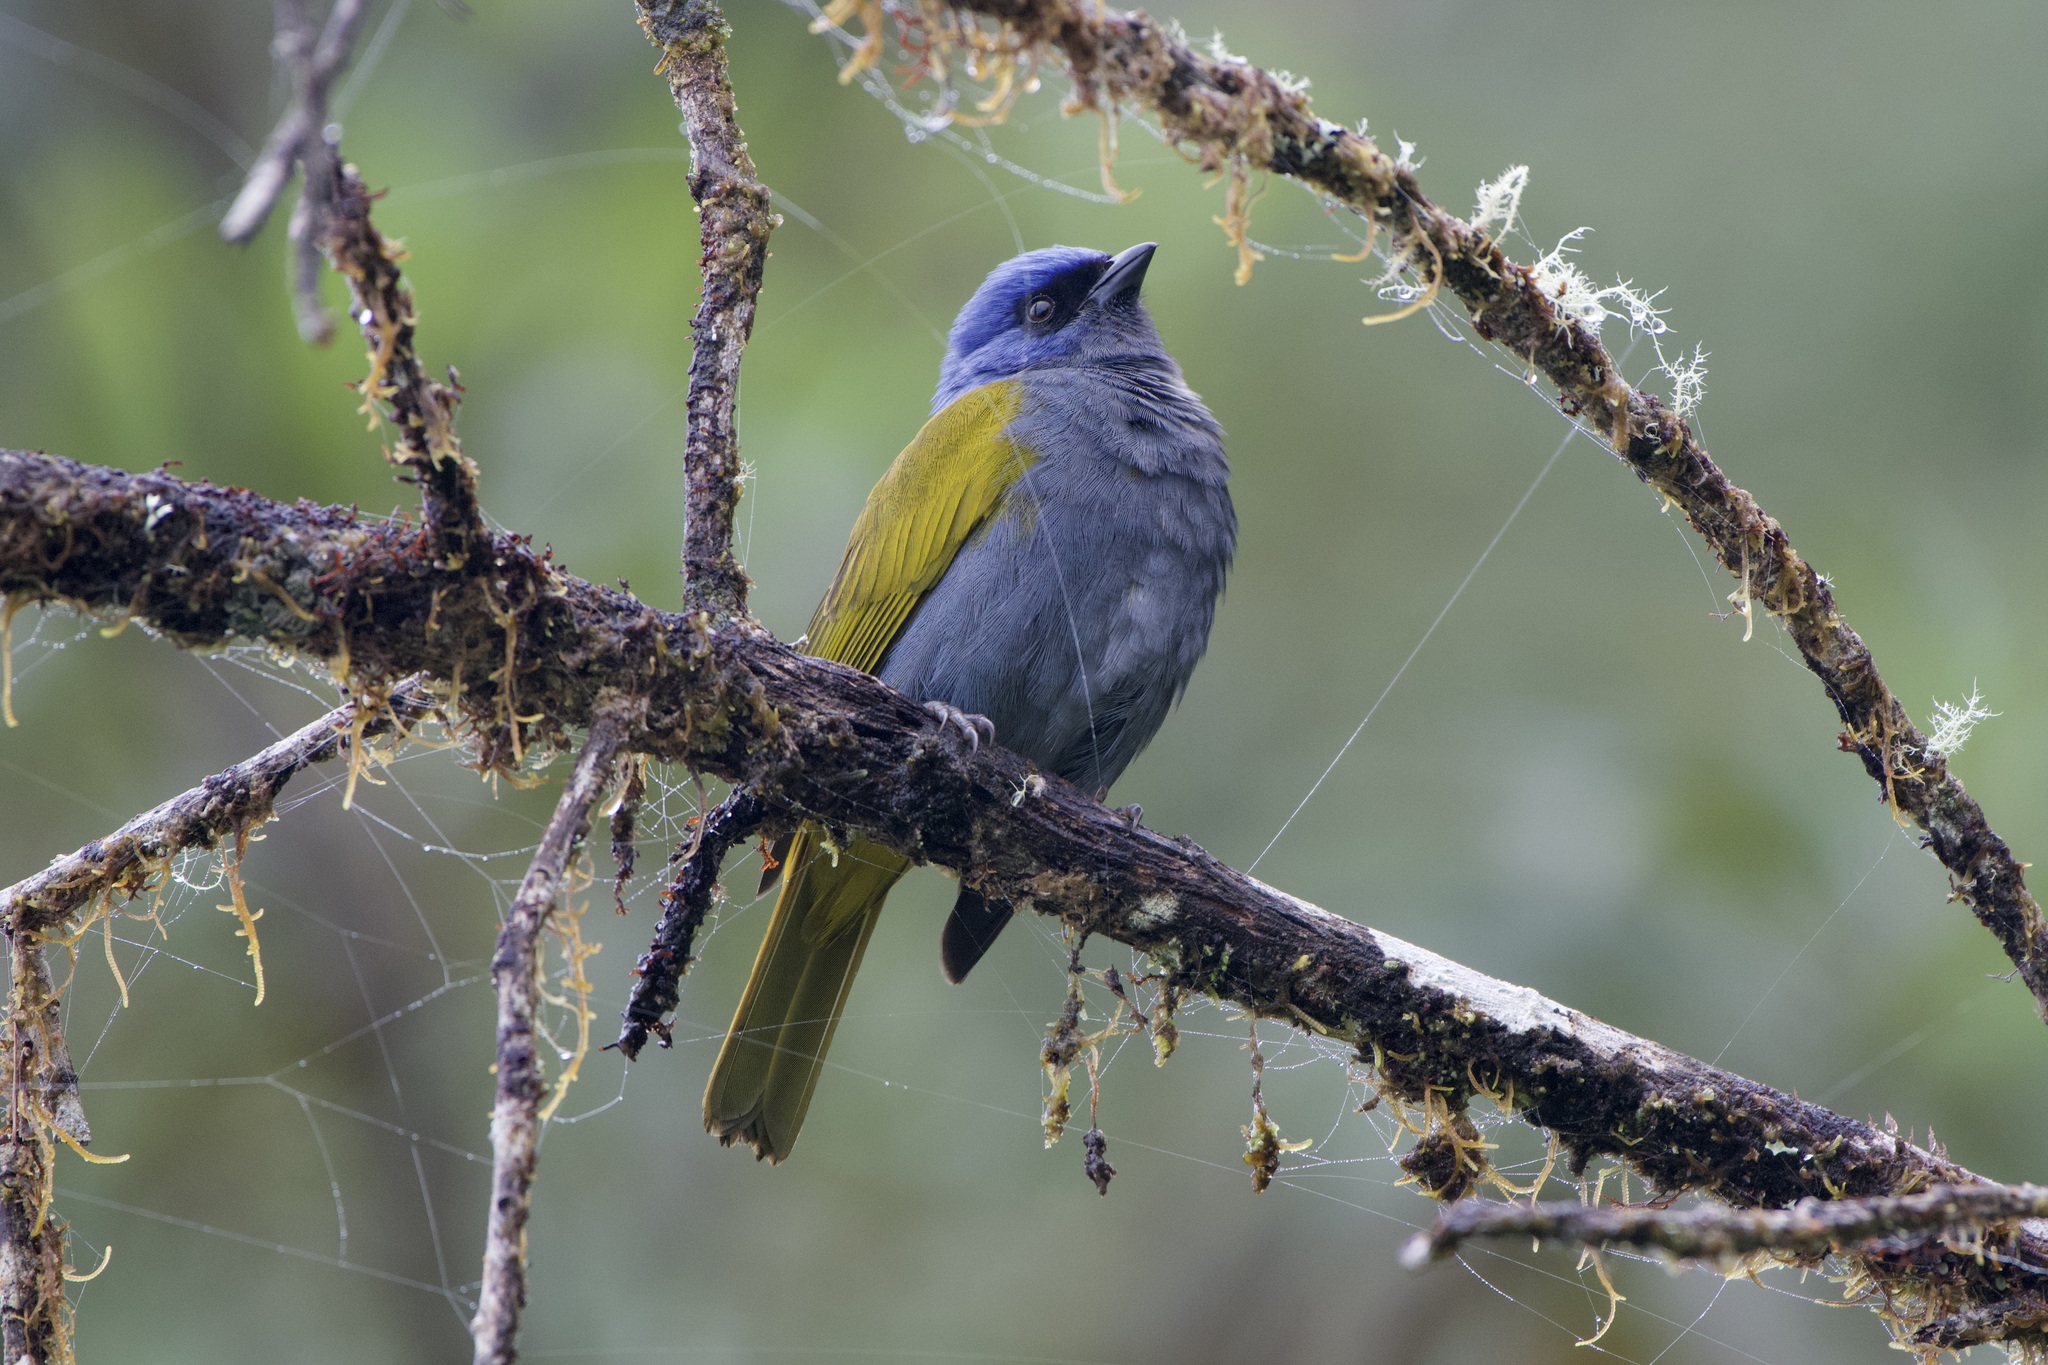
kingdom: Animalia
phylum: Chordata
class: Aves
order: Passeriformes
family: Thraupidae
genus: Sporathraupis
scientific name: Sporathraupis cyanocephala
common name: Blue-capped tanager
